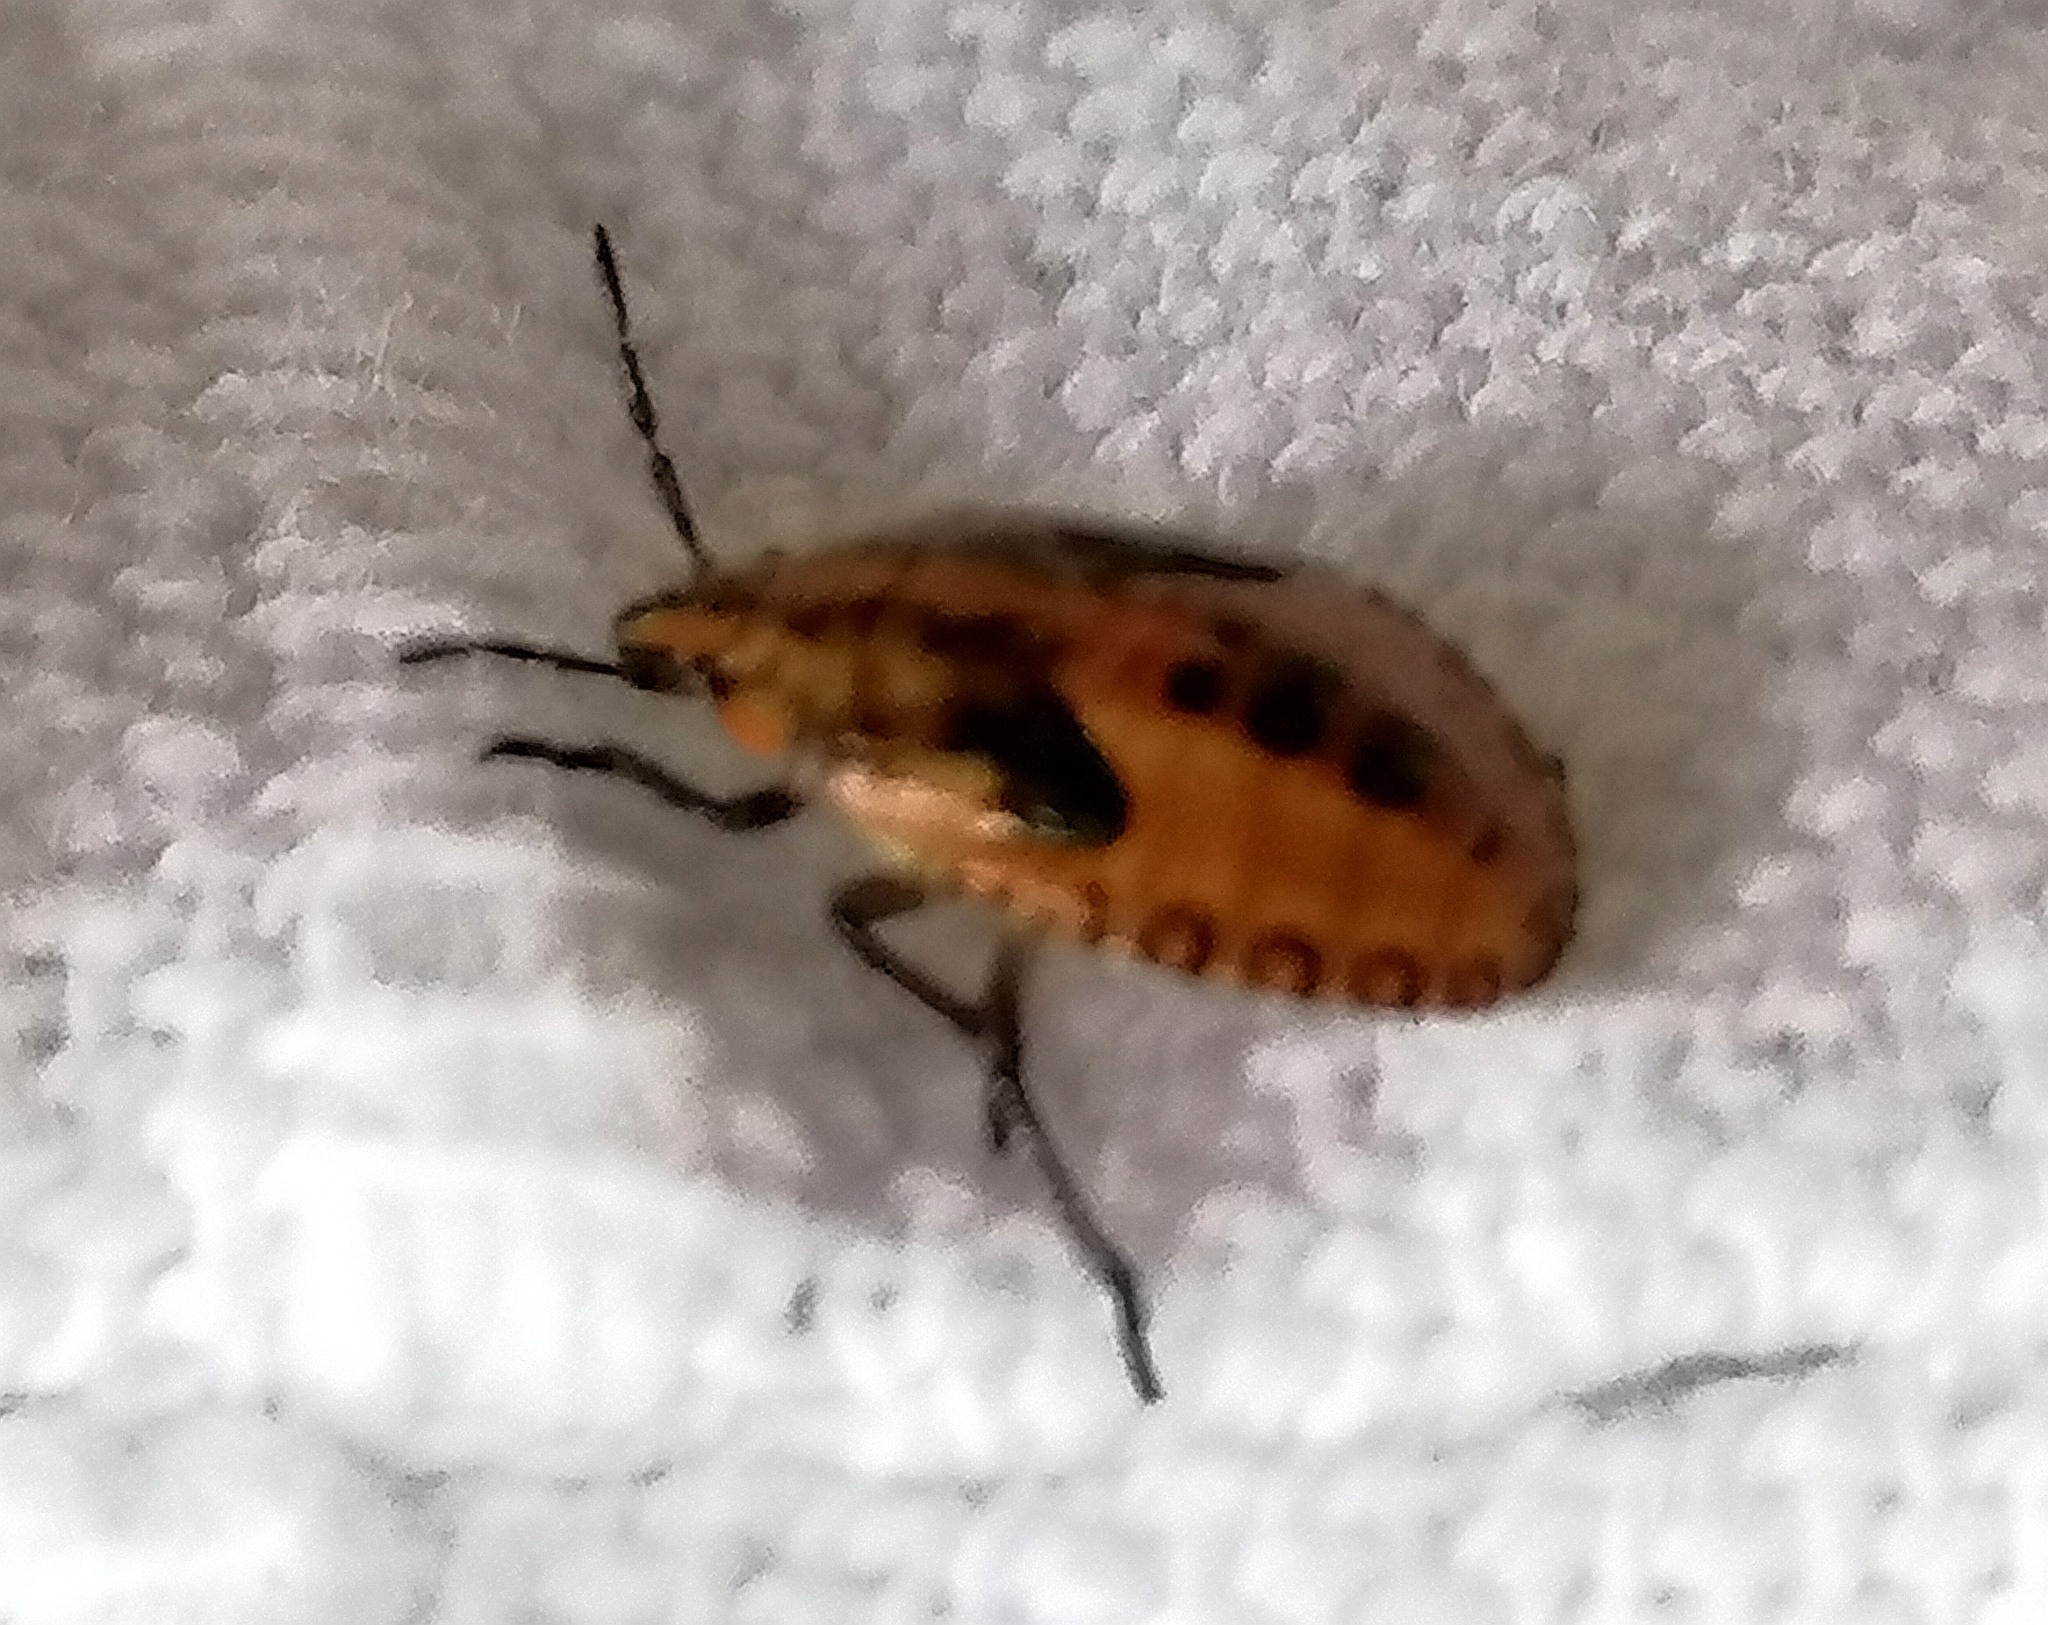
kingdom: Animalia
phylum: Arthropoda
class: Insecta
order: Hemiptera
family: Pentatomidae
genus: Agonoscelis
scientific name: Agonoscelis
